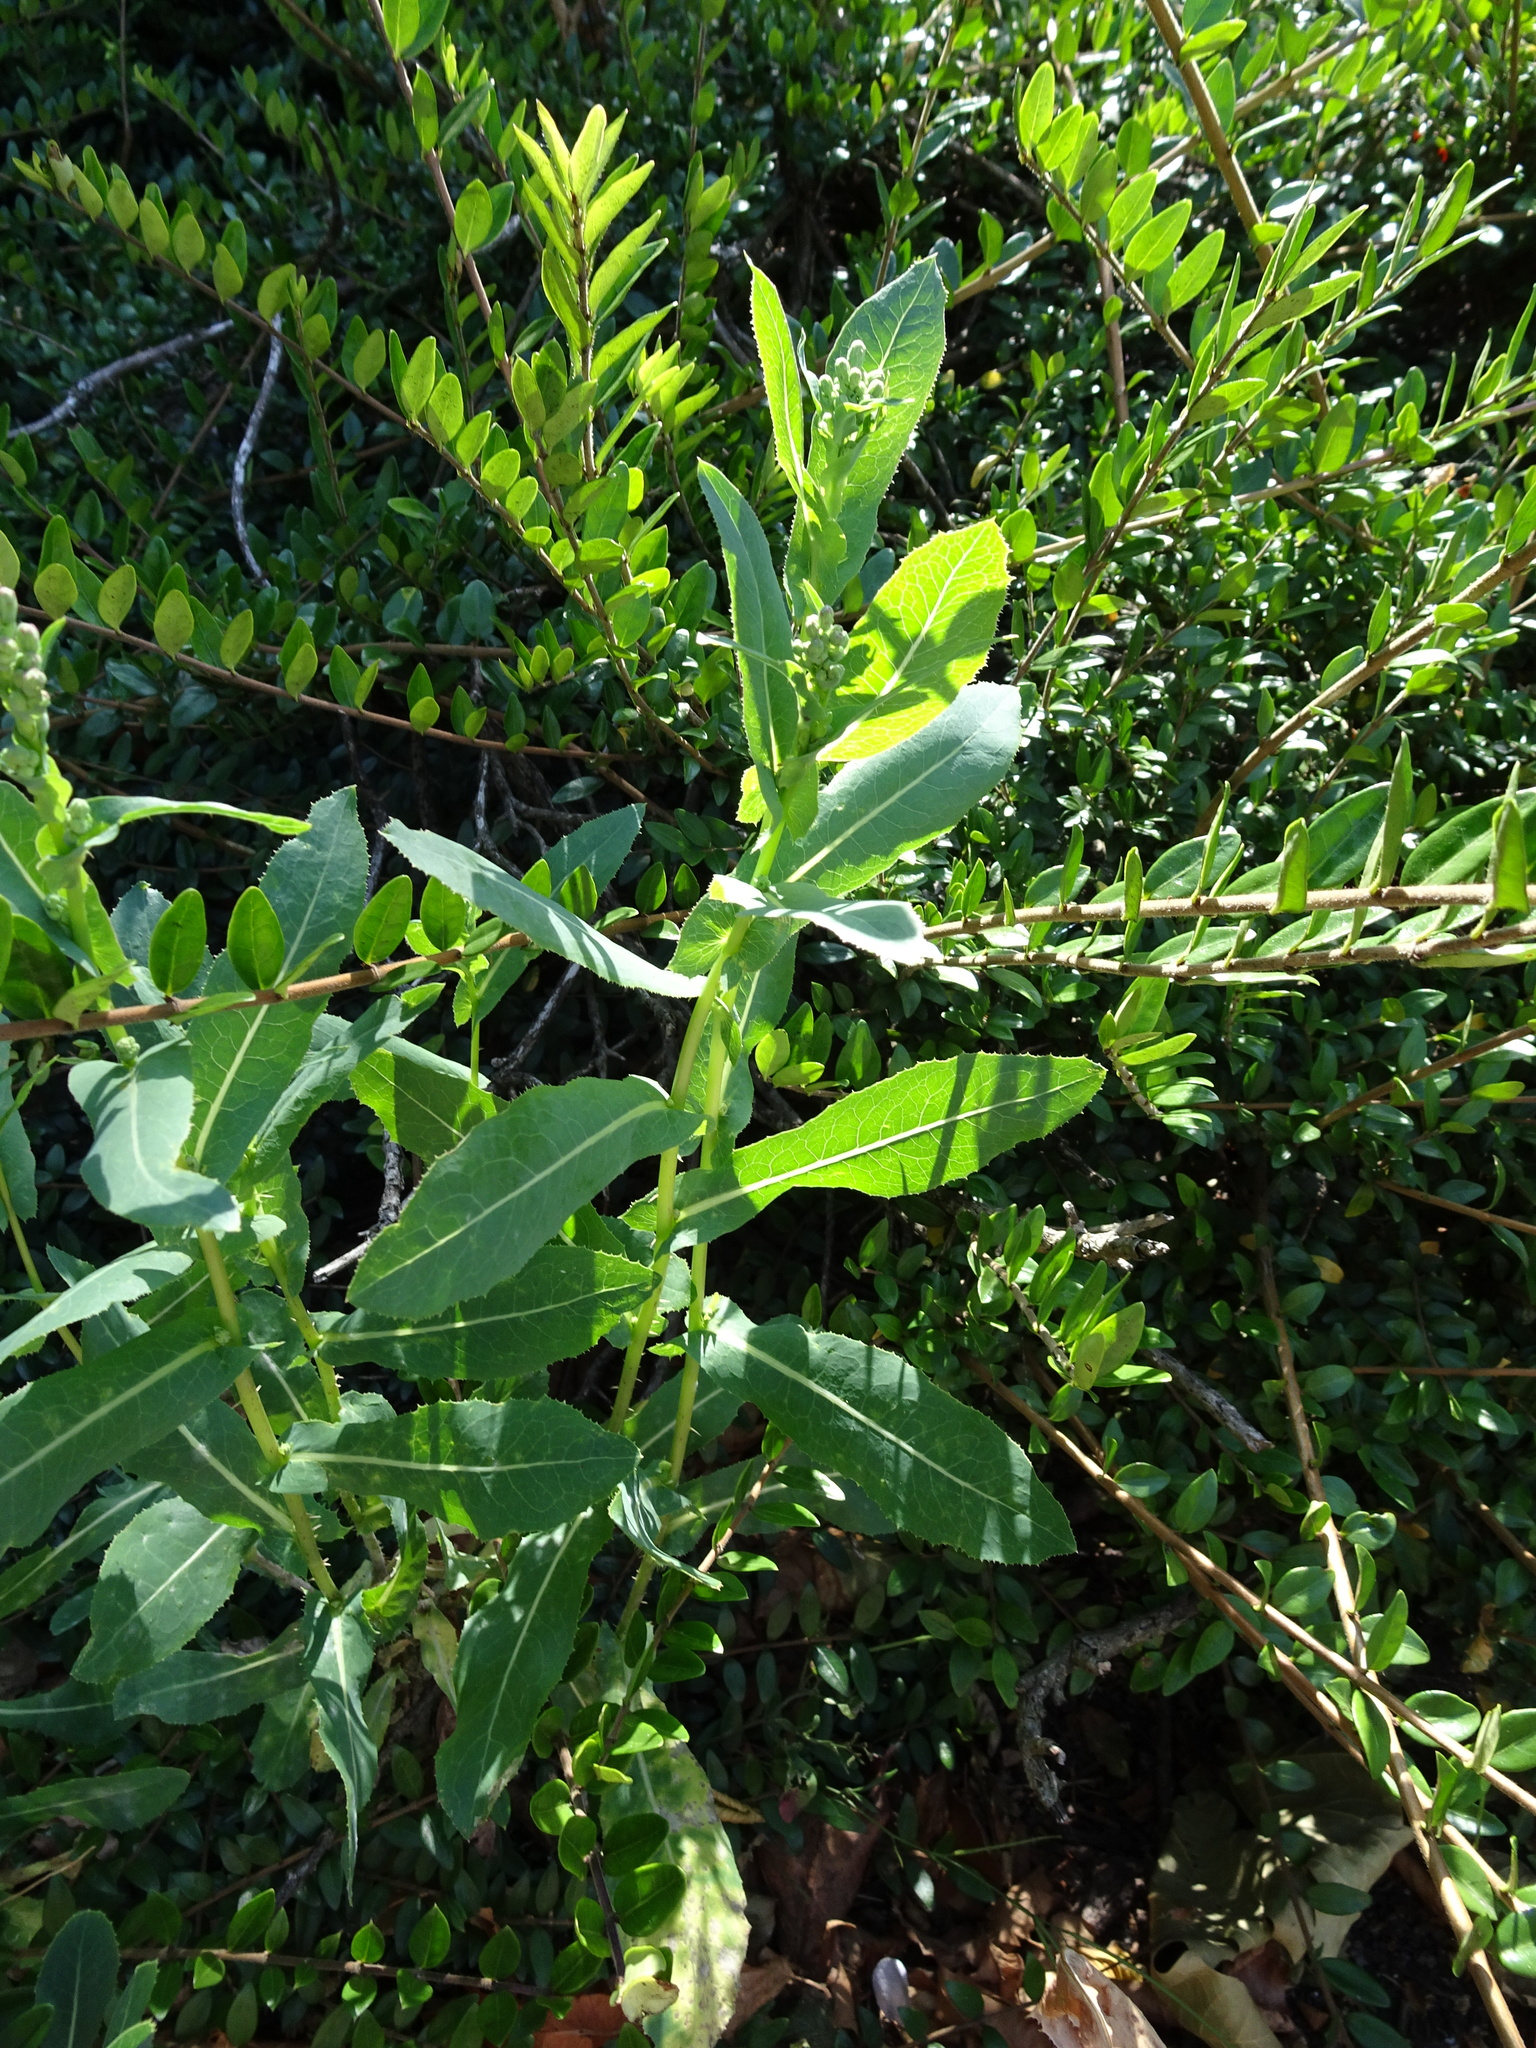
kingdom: Plantae
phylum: Tracheophyta
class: Magnoliopsida
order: Asterales
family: Asteraceae
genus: Lactuca
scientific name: Lactuca serriola
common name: Prickly lettuce
